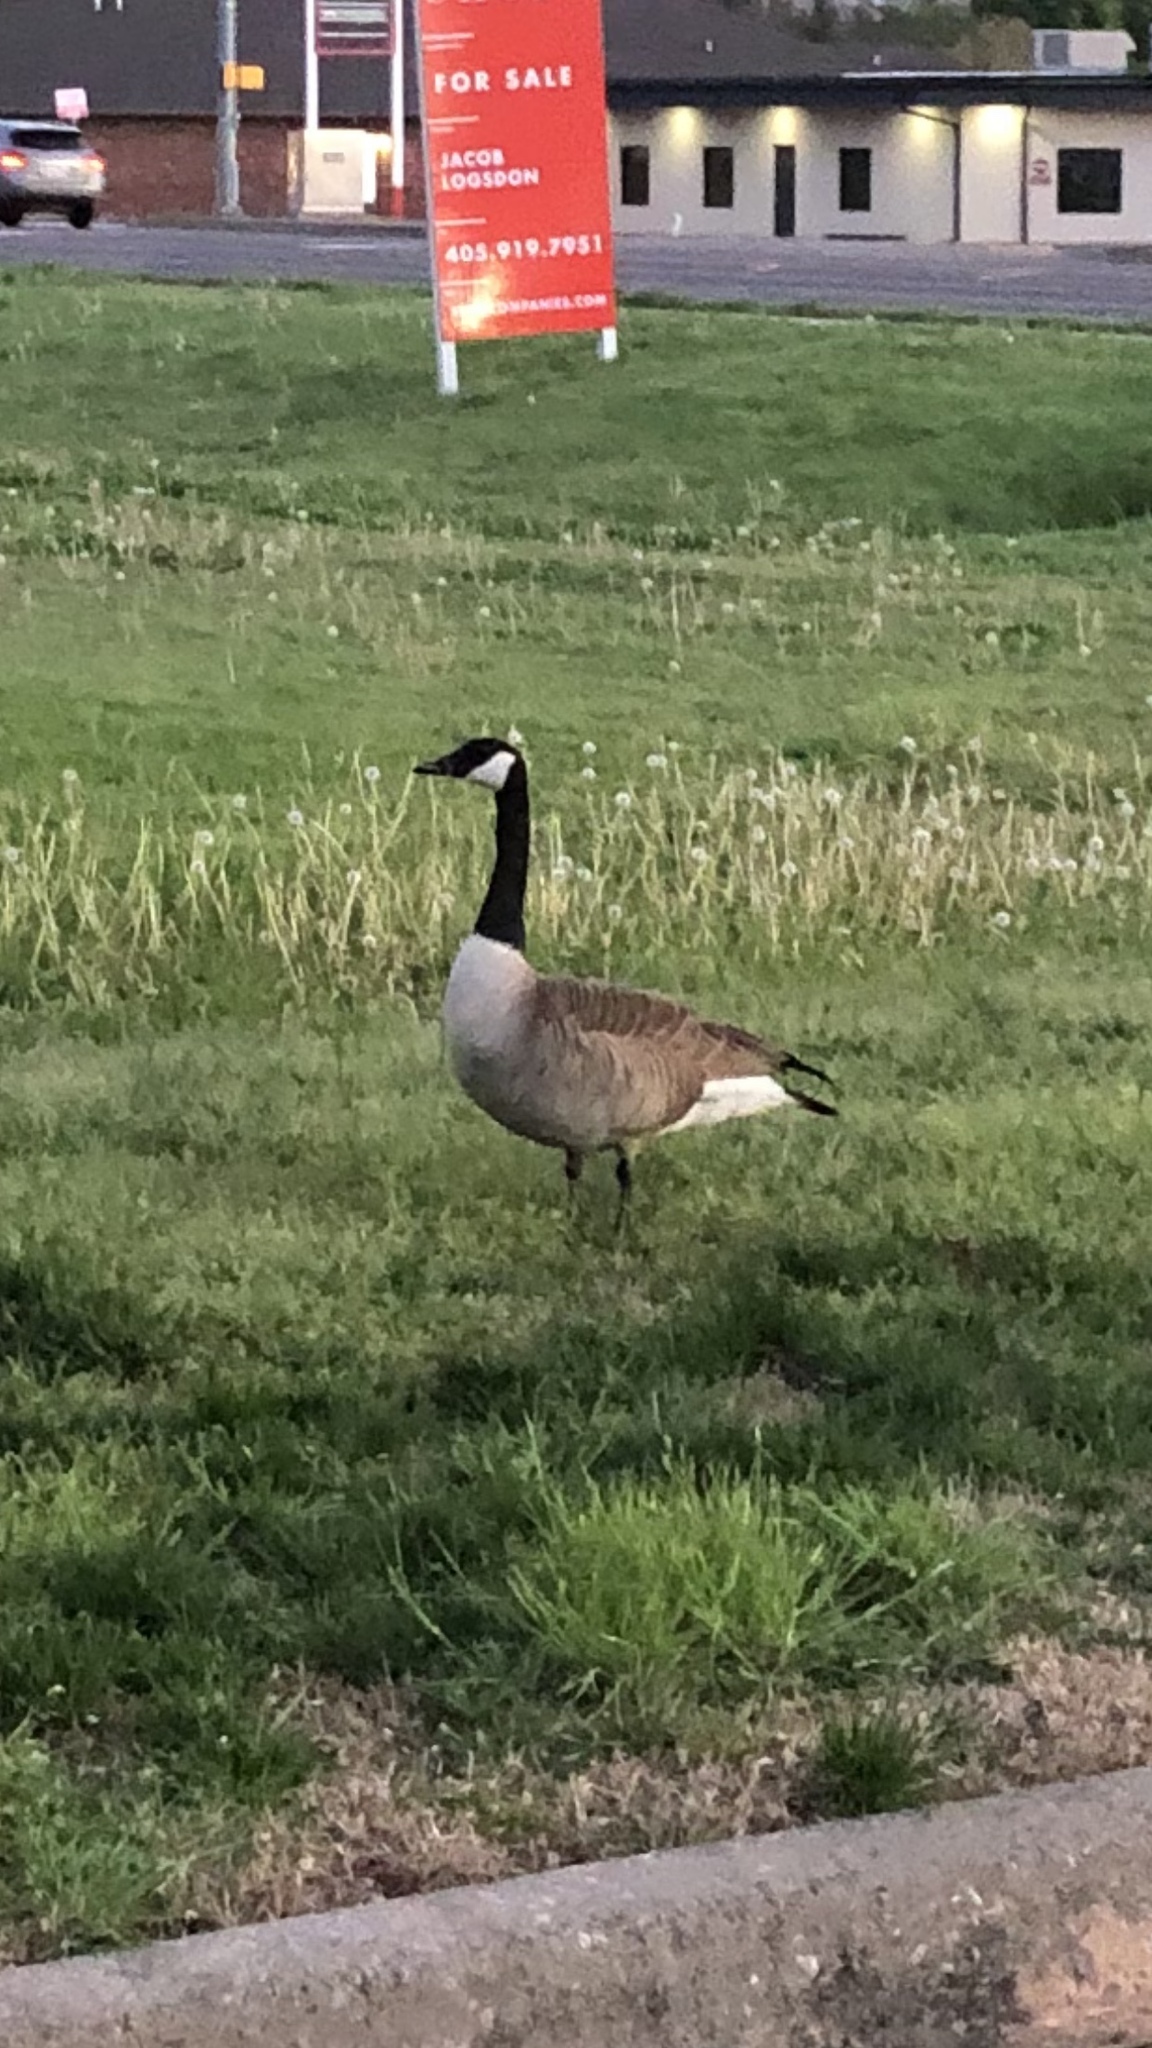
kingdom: Animalia
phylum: Chordata
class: Aves
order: Anseriformes
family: Anatidae
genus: Branta
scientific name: Branta canadensis
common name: Canada goose
